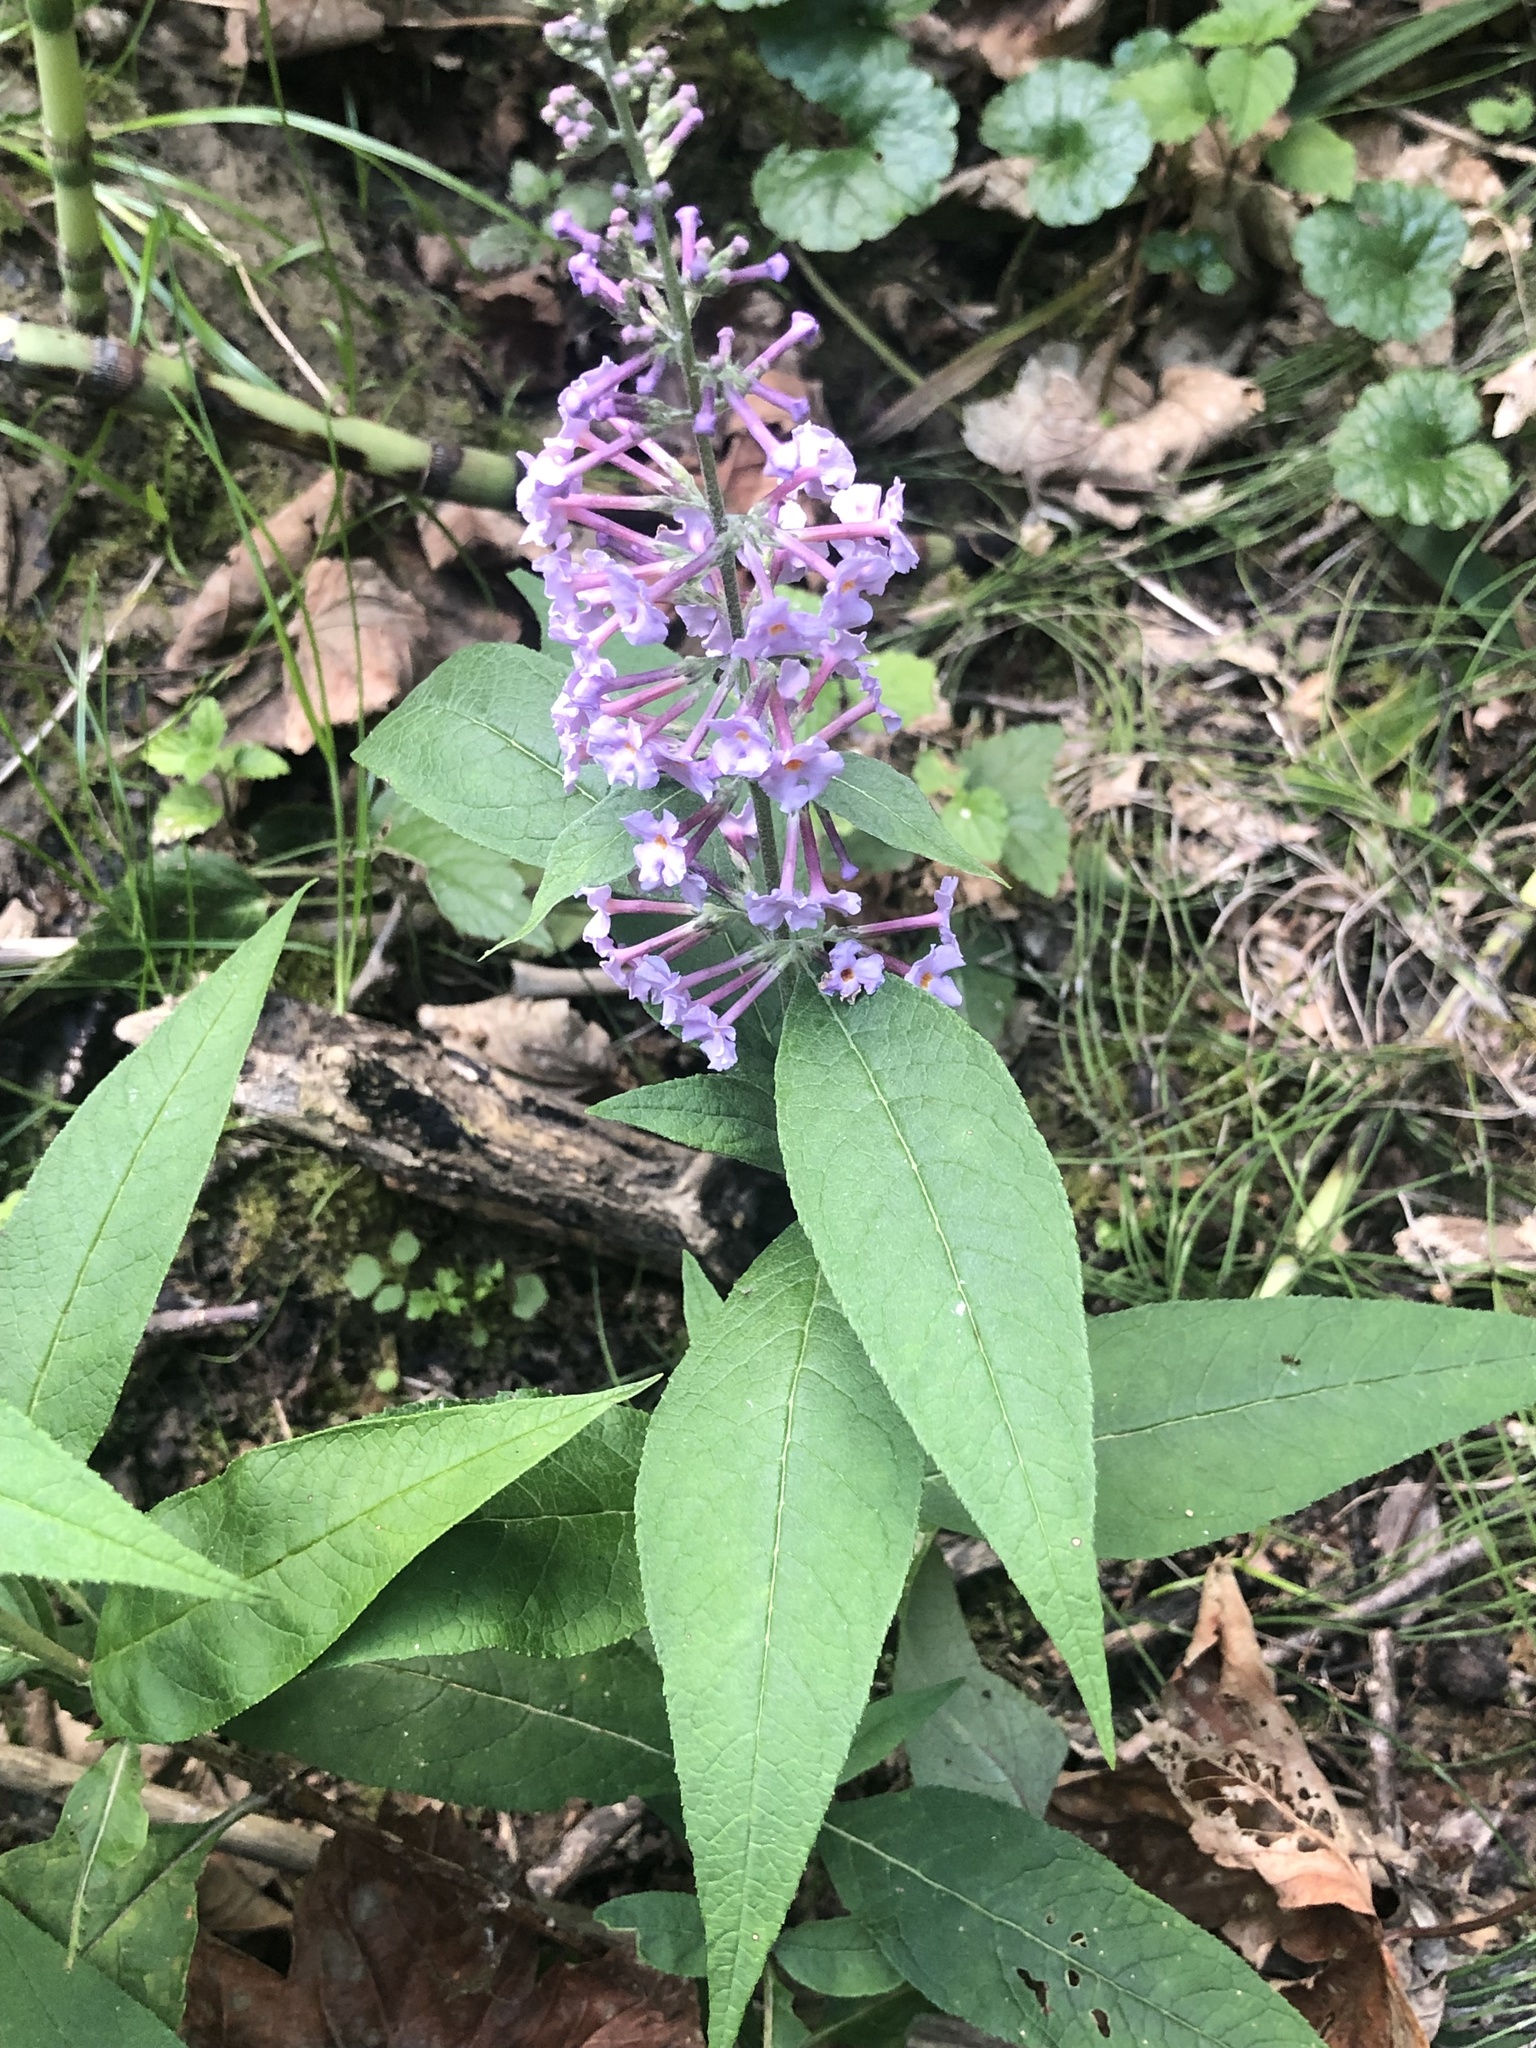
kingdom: Plantae
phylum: Tracheophyta
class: Magnoliopsida
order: Lamiales
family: Scrophulariaceae
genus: Buddleja
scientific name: Buddleja davidii
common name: Butterfly-bush
